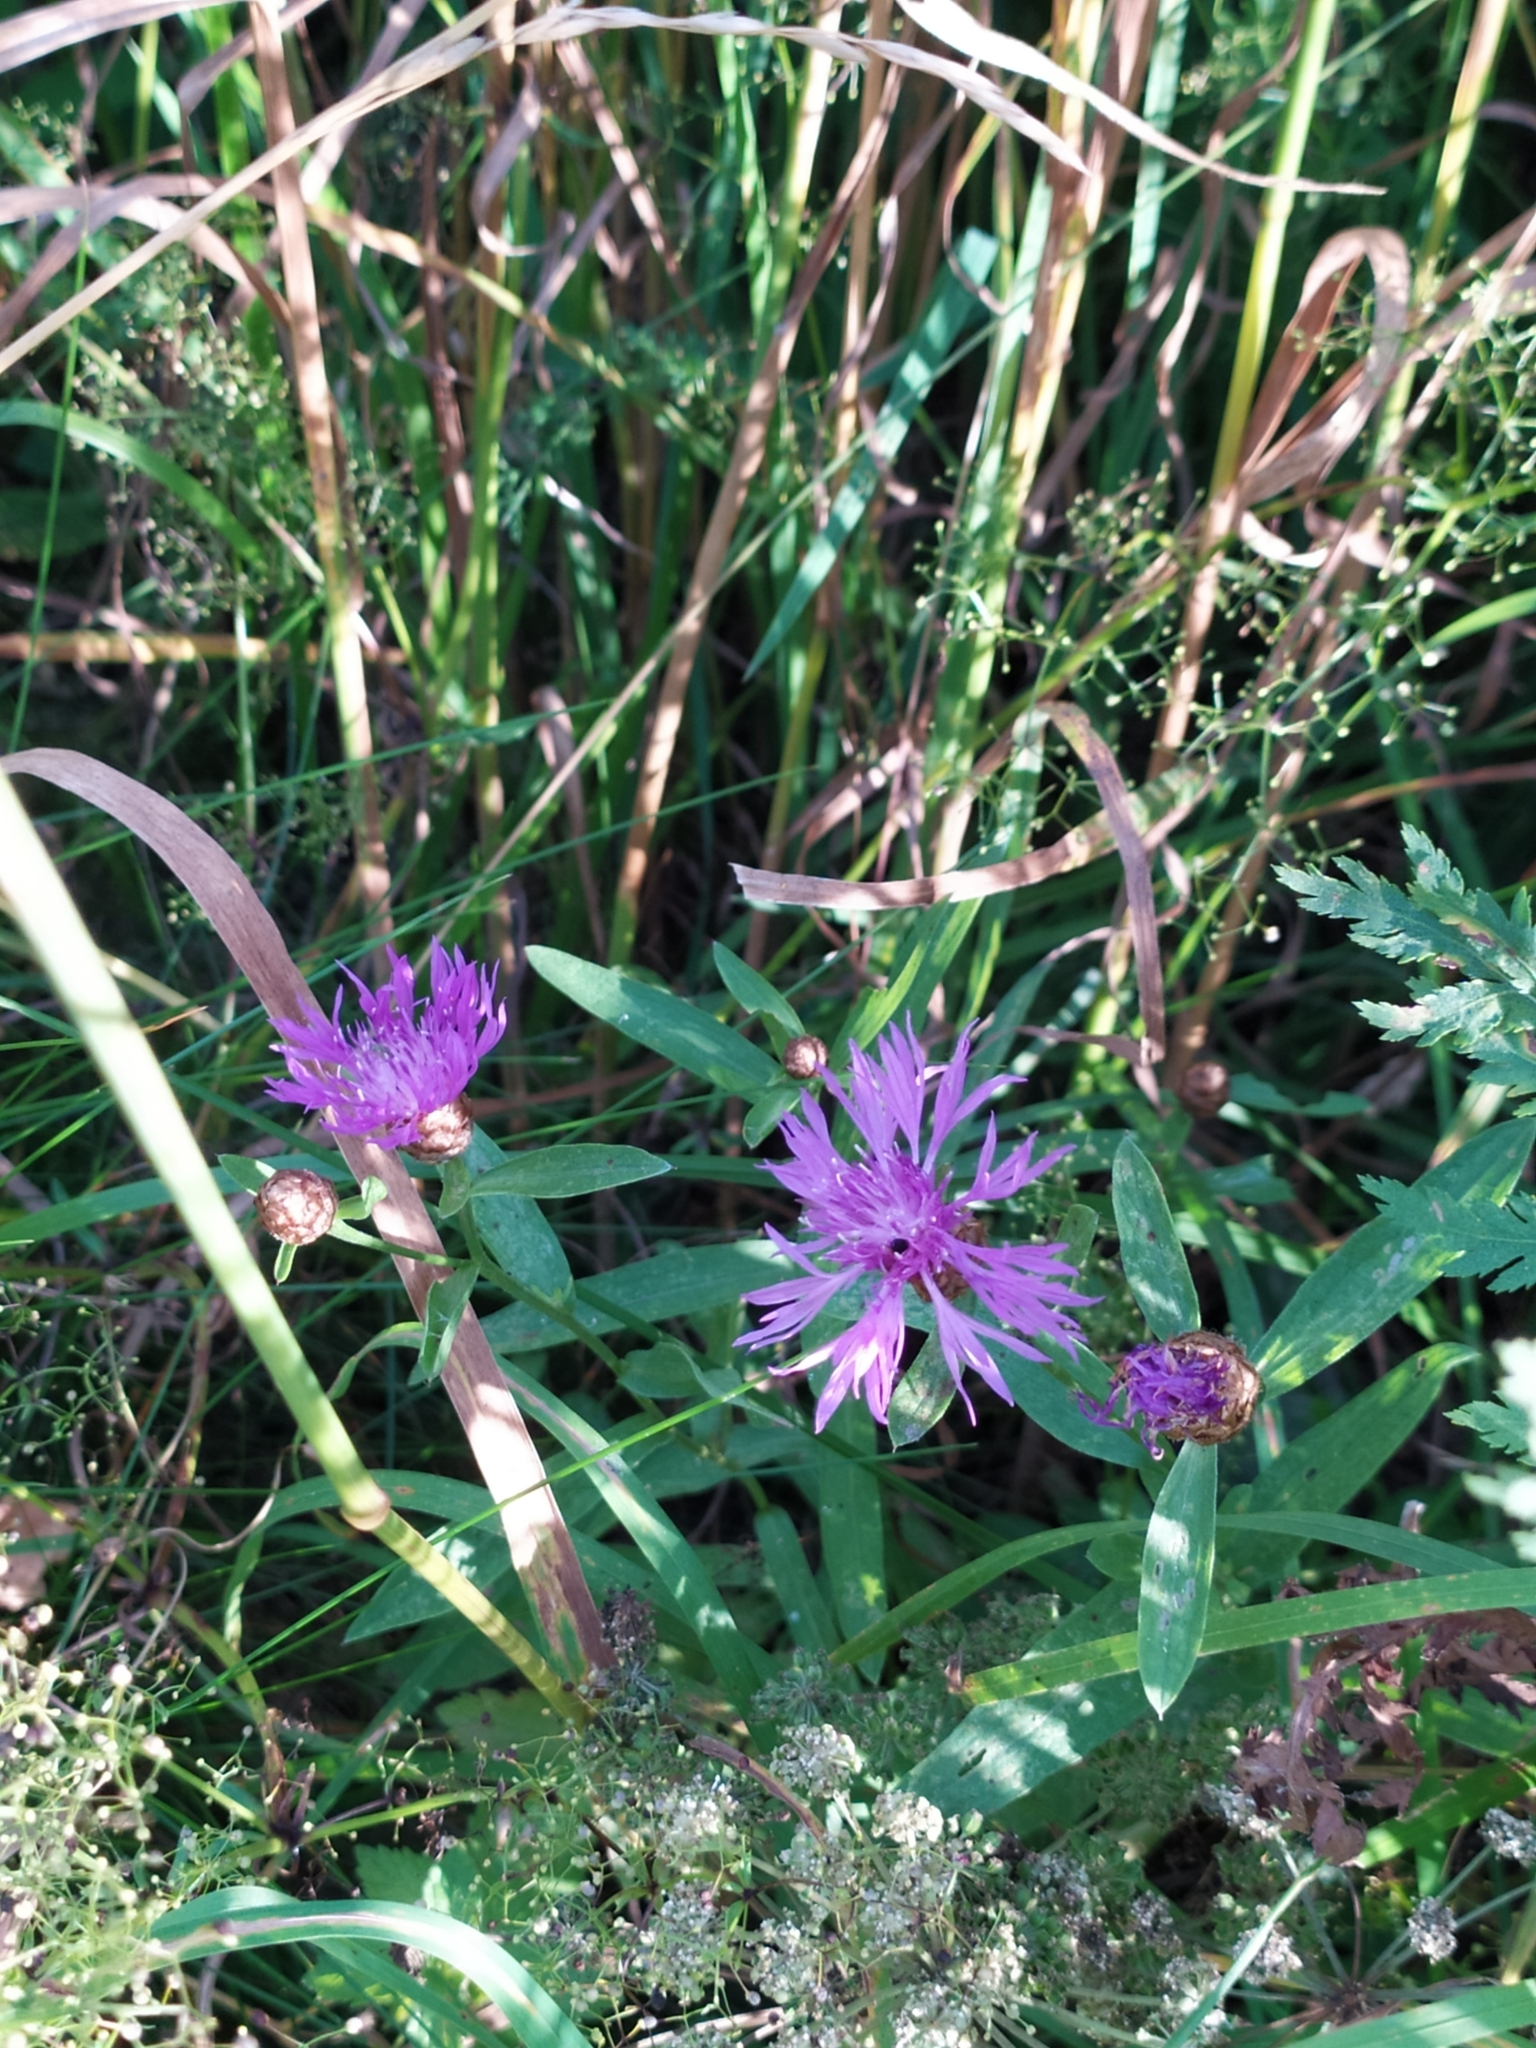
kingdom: Plantae
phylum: Tracheophyta
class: Magnoliopsida
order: Asterales
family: Asteraceae
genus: Centaurea
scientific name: Centaurea jacea
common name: Brown knapweed
